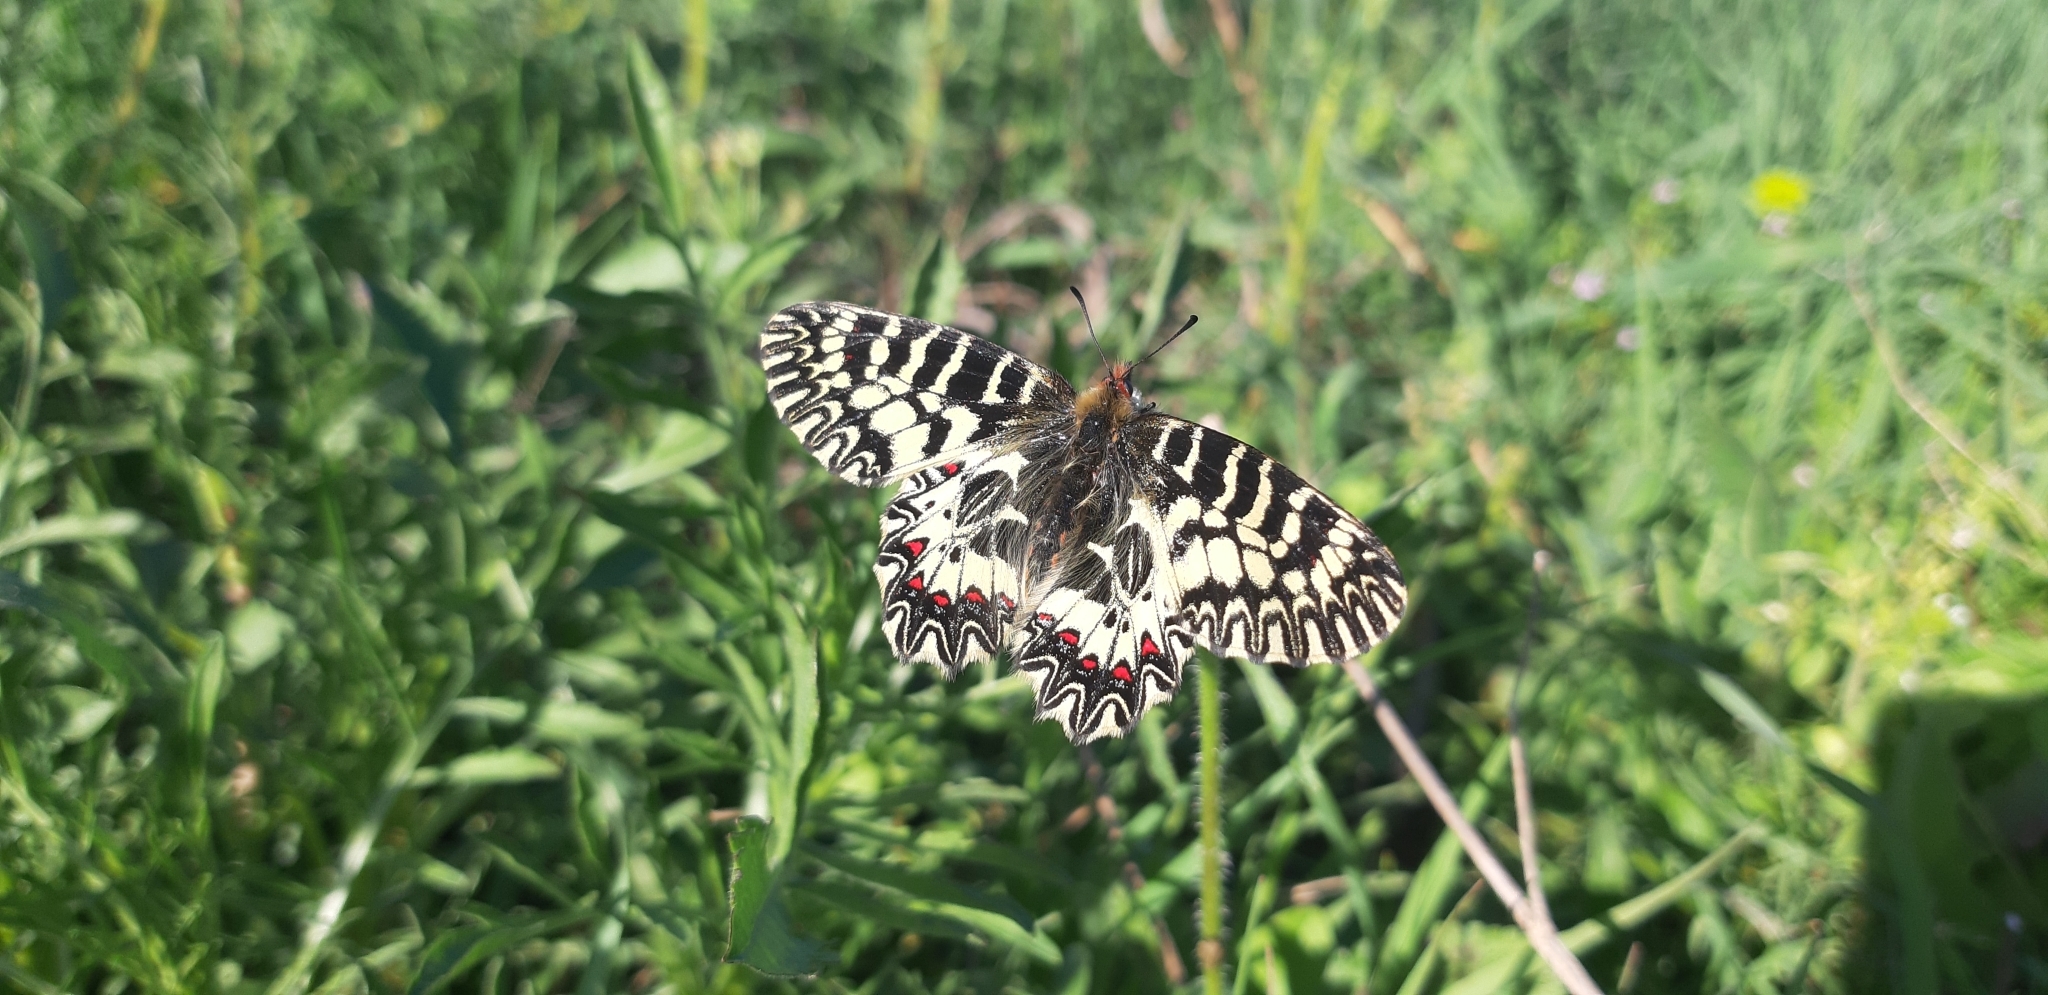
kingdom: Animalia
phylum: Arthropoda
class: Insecta
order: Lepidoptera
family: Papilionidae
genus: Zerynthia
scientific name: Zerynthia cassandra
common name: Italian festoon
